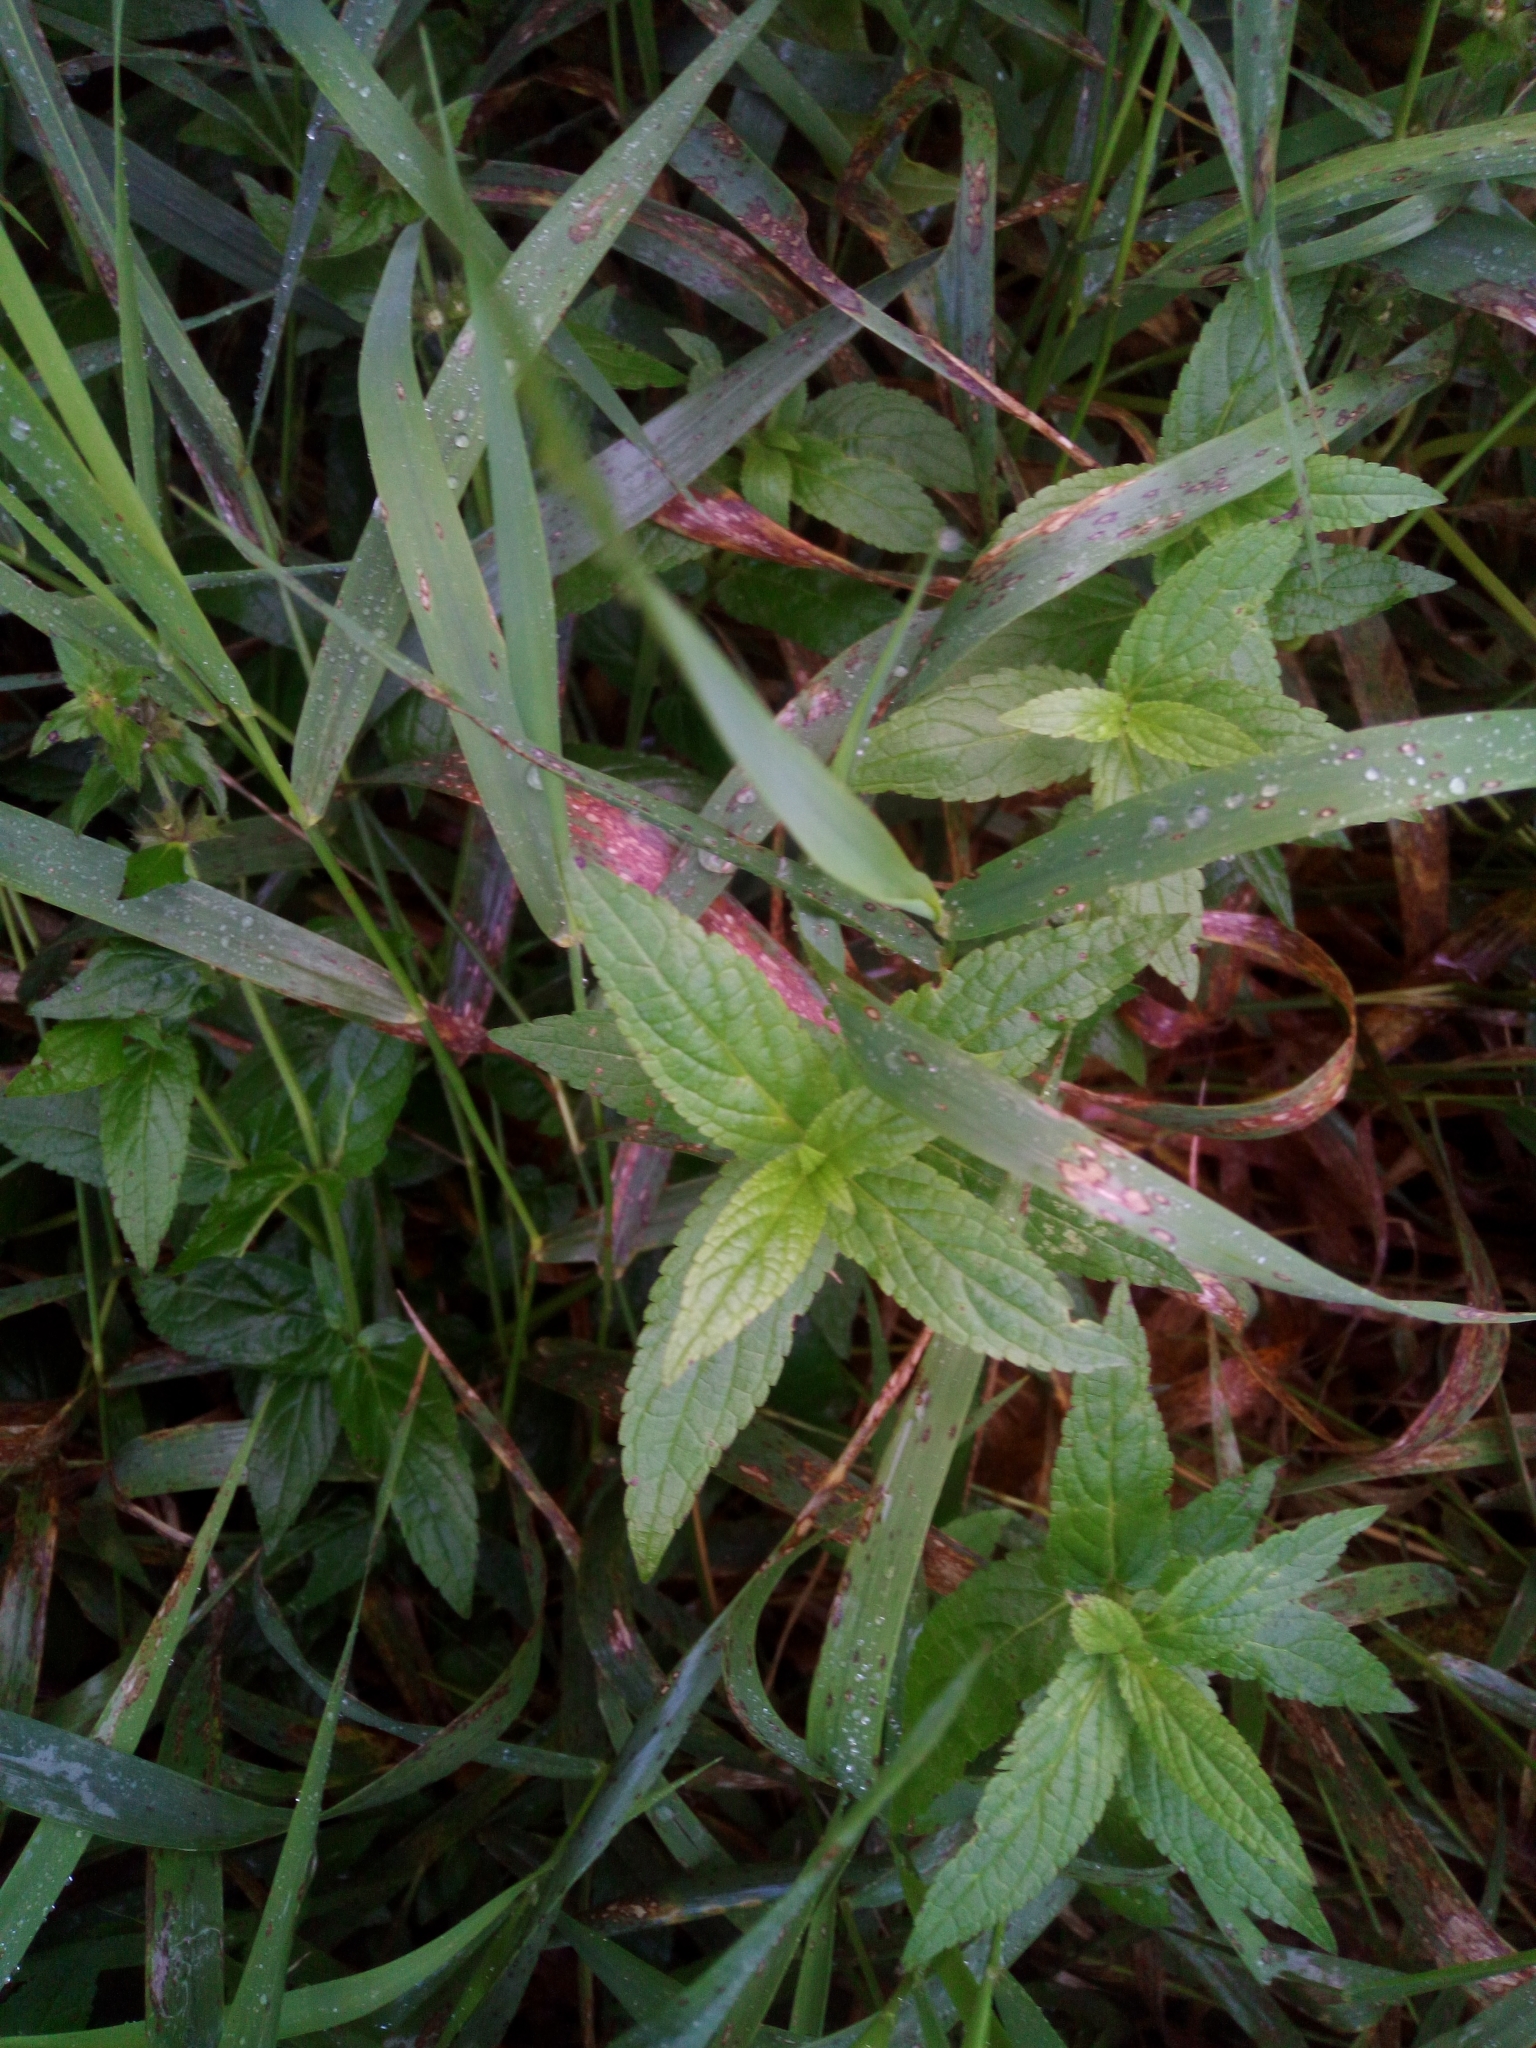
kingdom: Plantae
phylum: Tracheophyta
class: Magnoliopsida
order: Lamiales
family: Lamiaceae
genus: Stachys
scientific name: Stachys palustris
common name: Marsh woundwort
